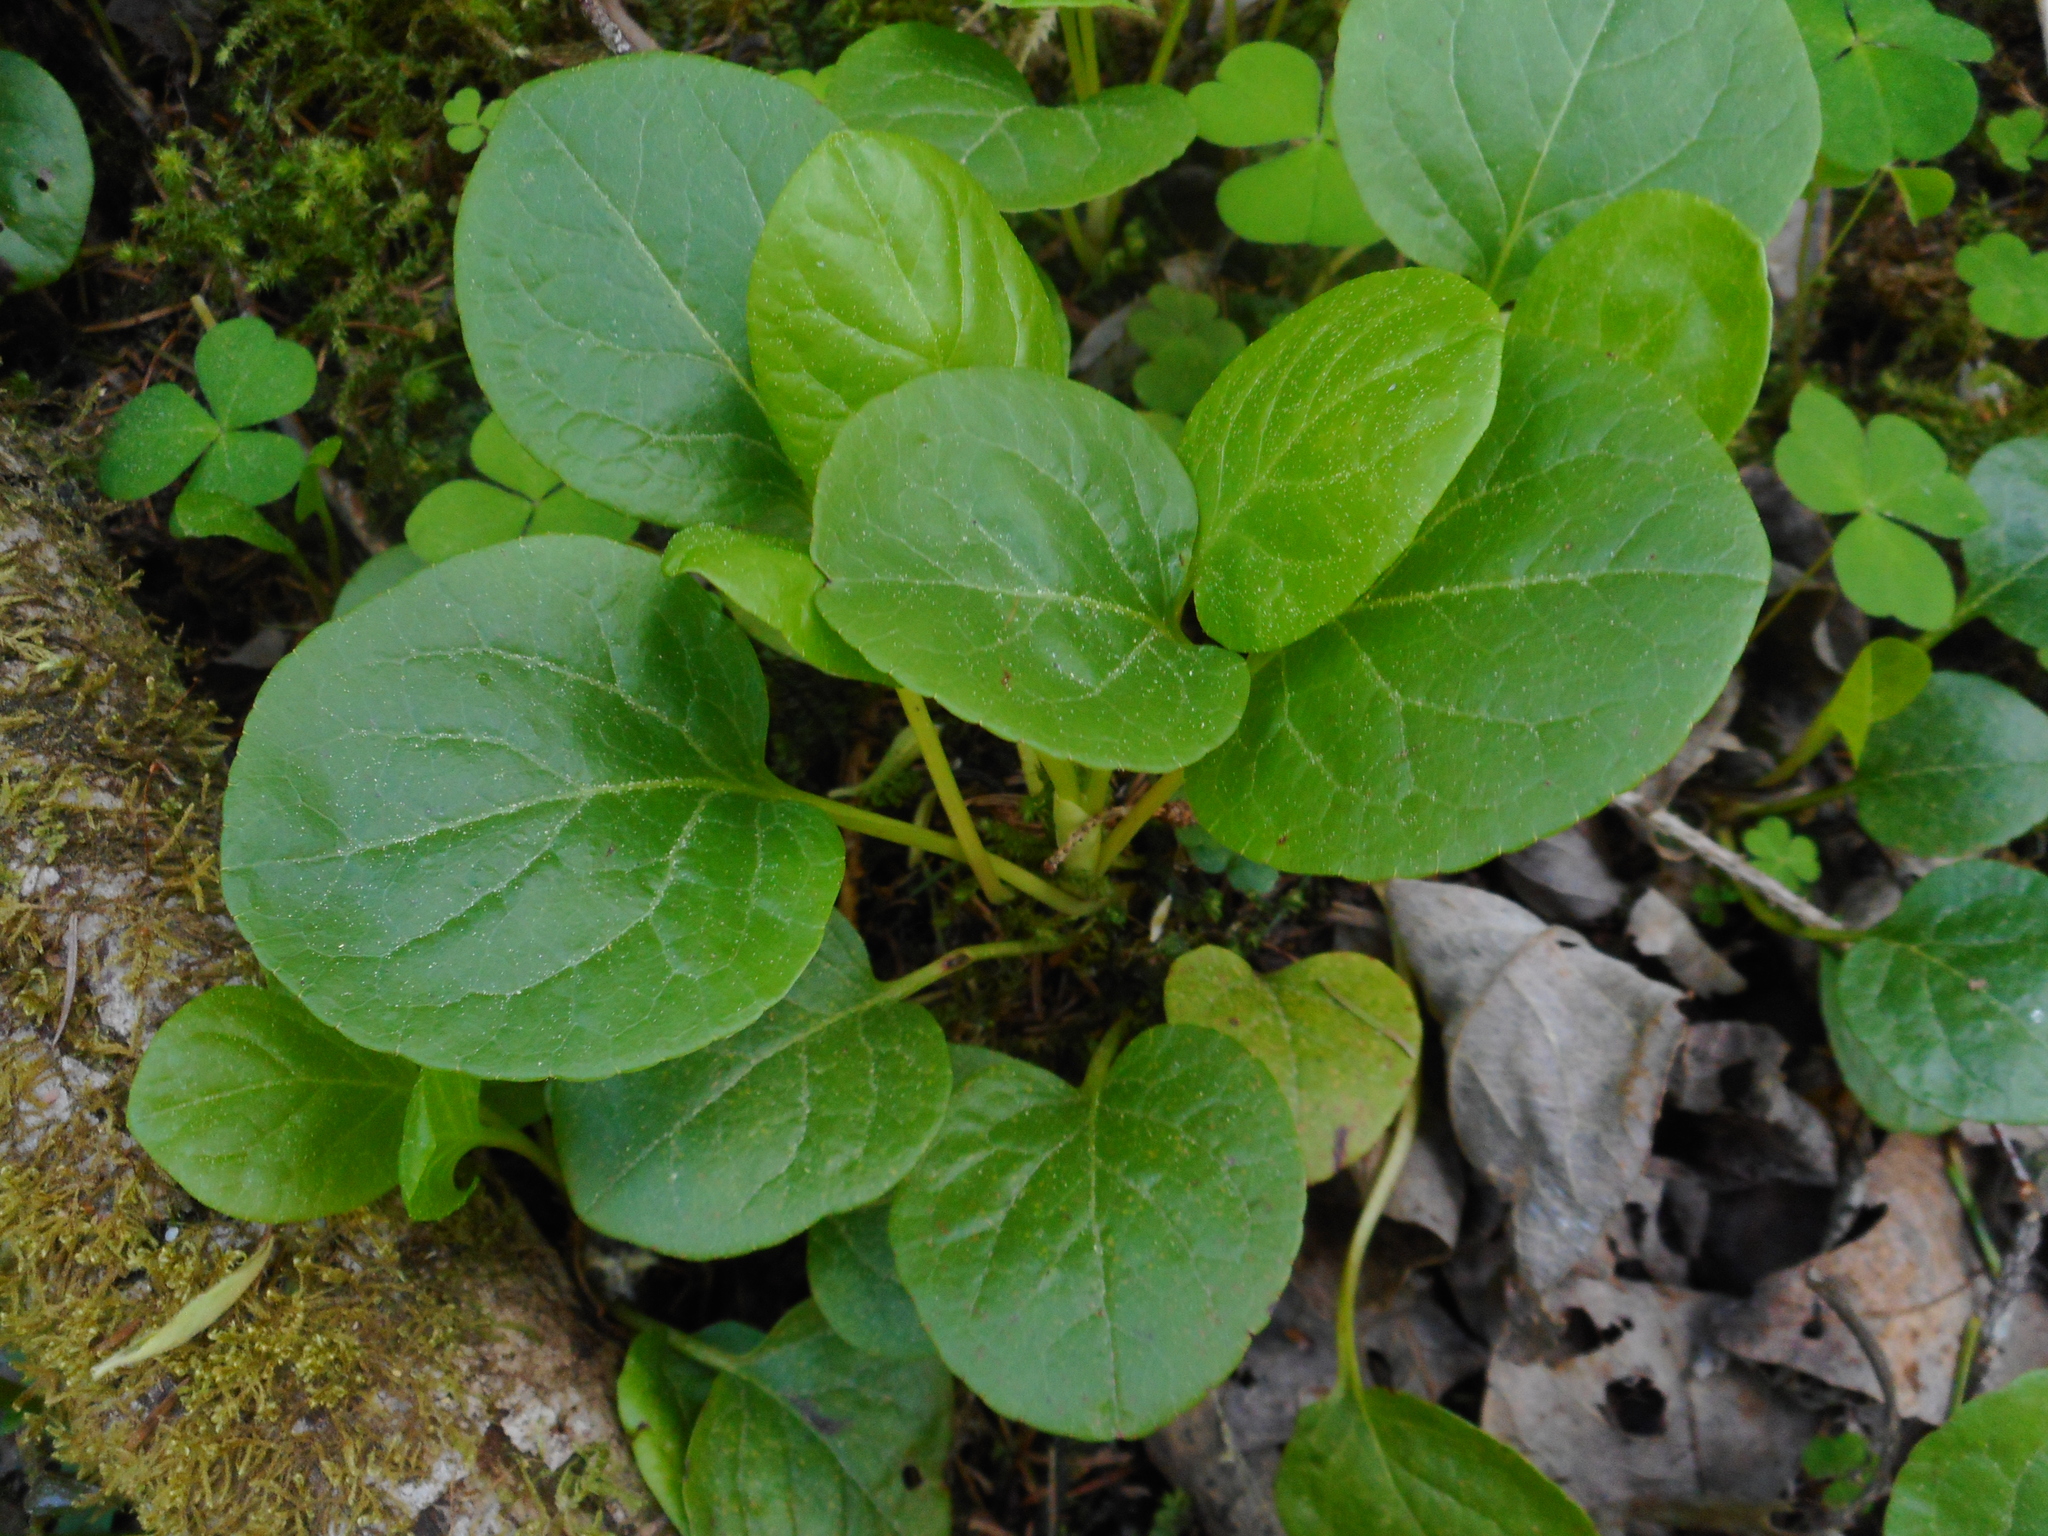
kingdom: Plantae
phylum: Tracheophyta
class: Magnoliopsida
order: Ericales
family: Ericaceae
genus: Pyrola
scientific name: Pyrola
